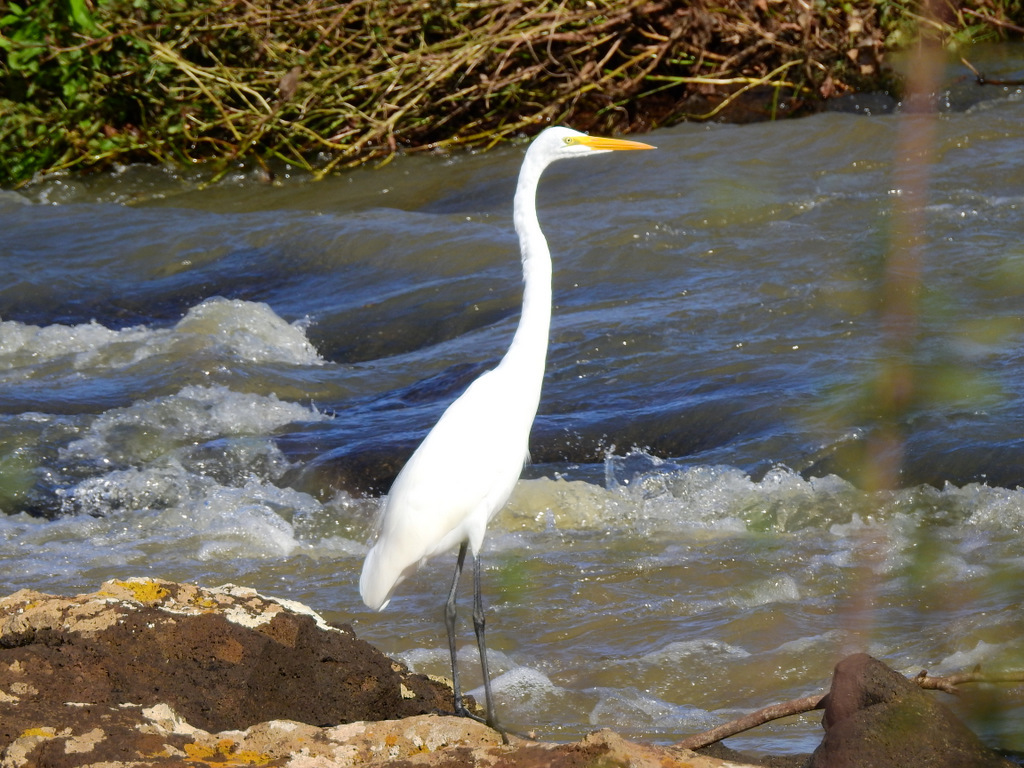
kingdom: Animalia
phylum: Chordata
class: Aves
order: Pelecaniformes
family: Ardeidae
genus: Ardea
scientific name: Ardea alba
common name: Great egret
